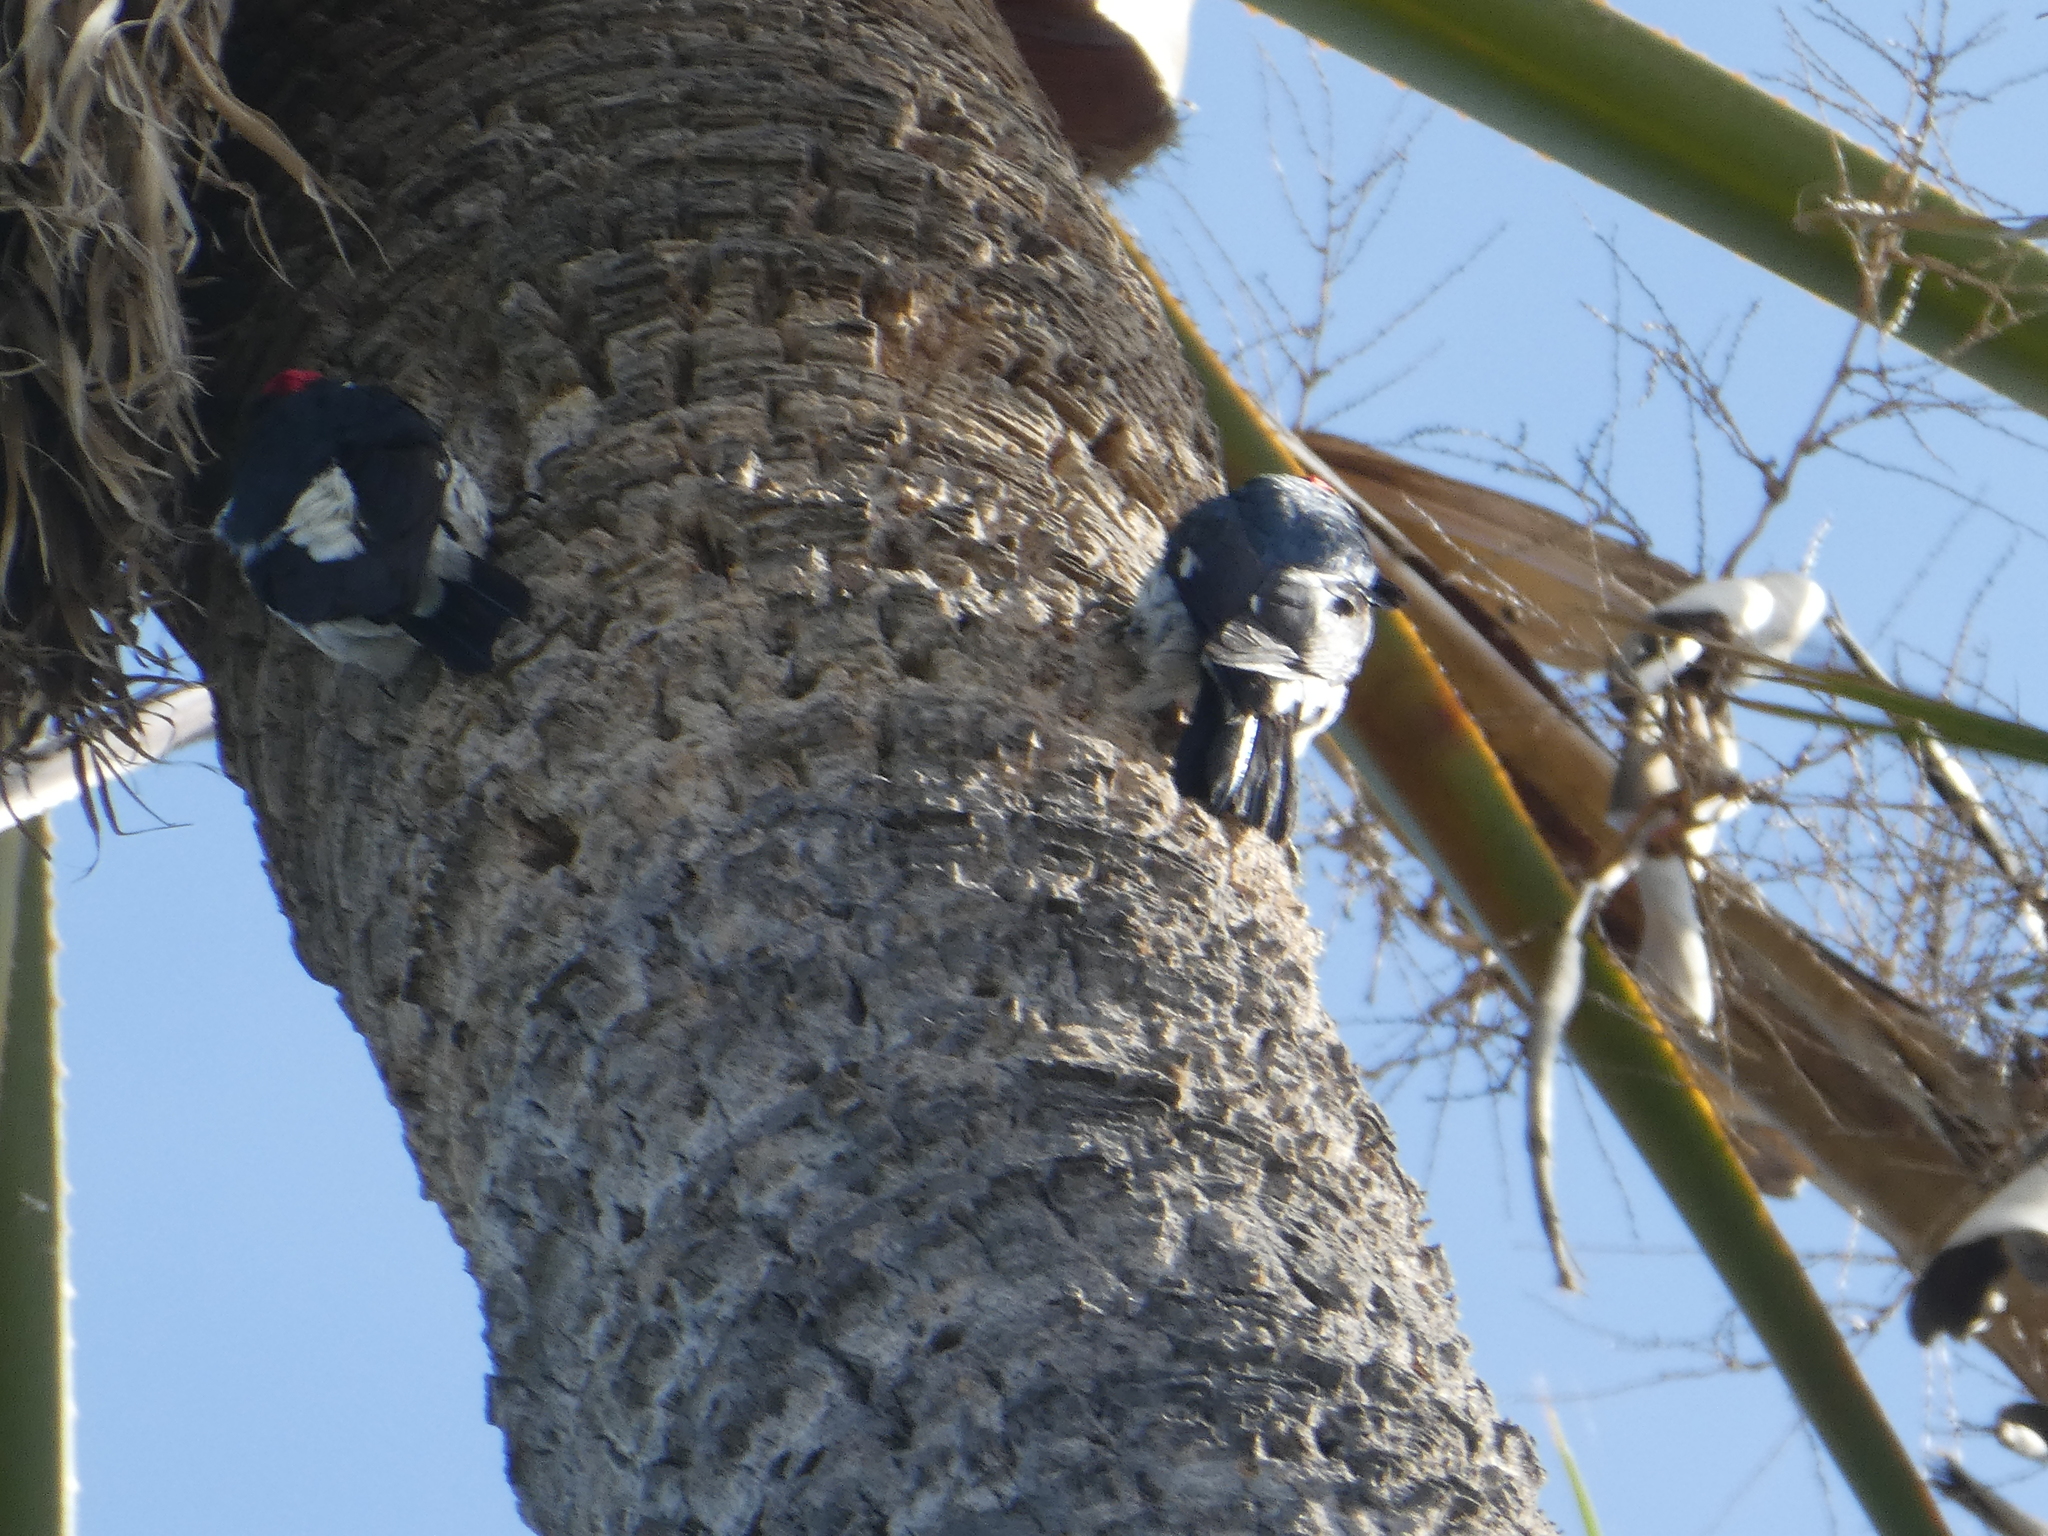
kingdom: Animalia
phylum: Chordata
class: Aves
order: Piciformes
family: Picidae
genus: Melanerpes
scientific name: Melanerpes formicivorus
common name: Acorn woodpecker
